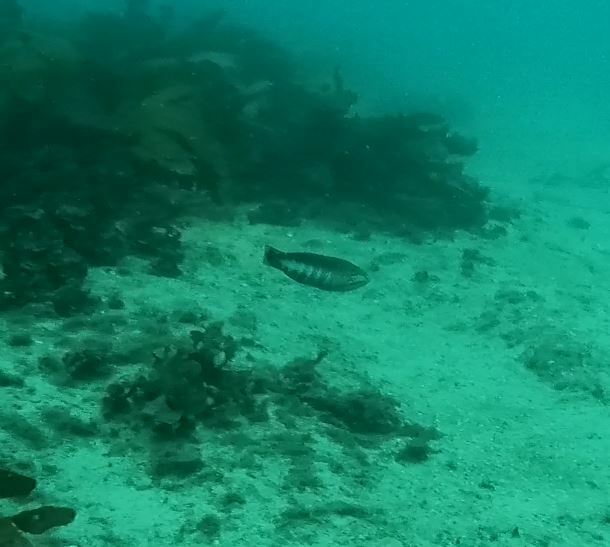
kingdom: Animalia
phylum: Chordata
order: Perciformes
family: Labridae
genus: Pseudolabrus
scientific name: Pseudolabrus guentheri
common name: Günther's wrasse
